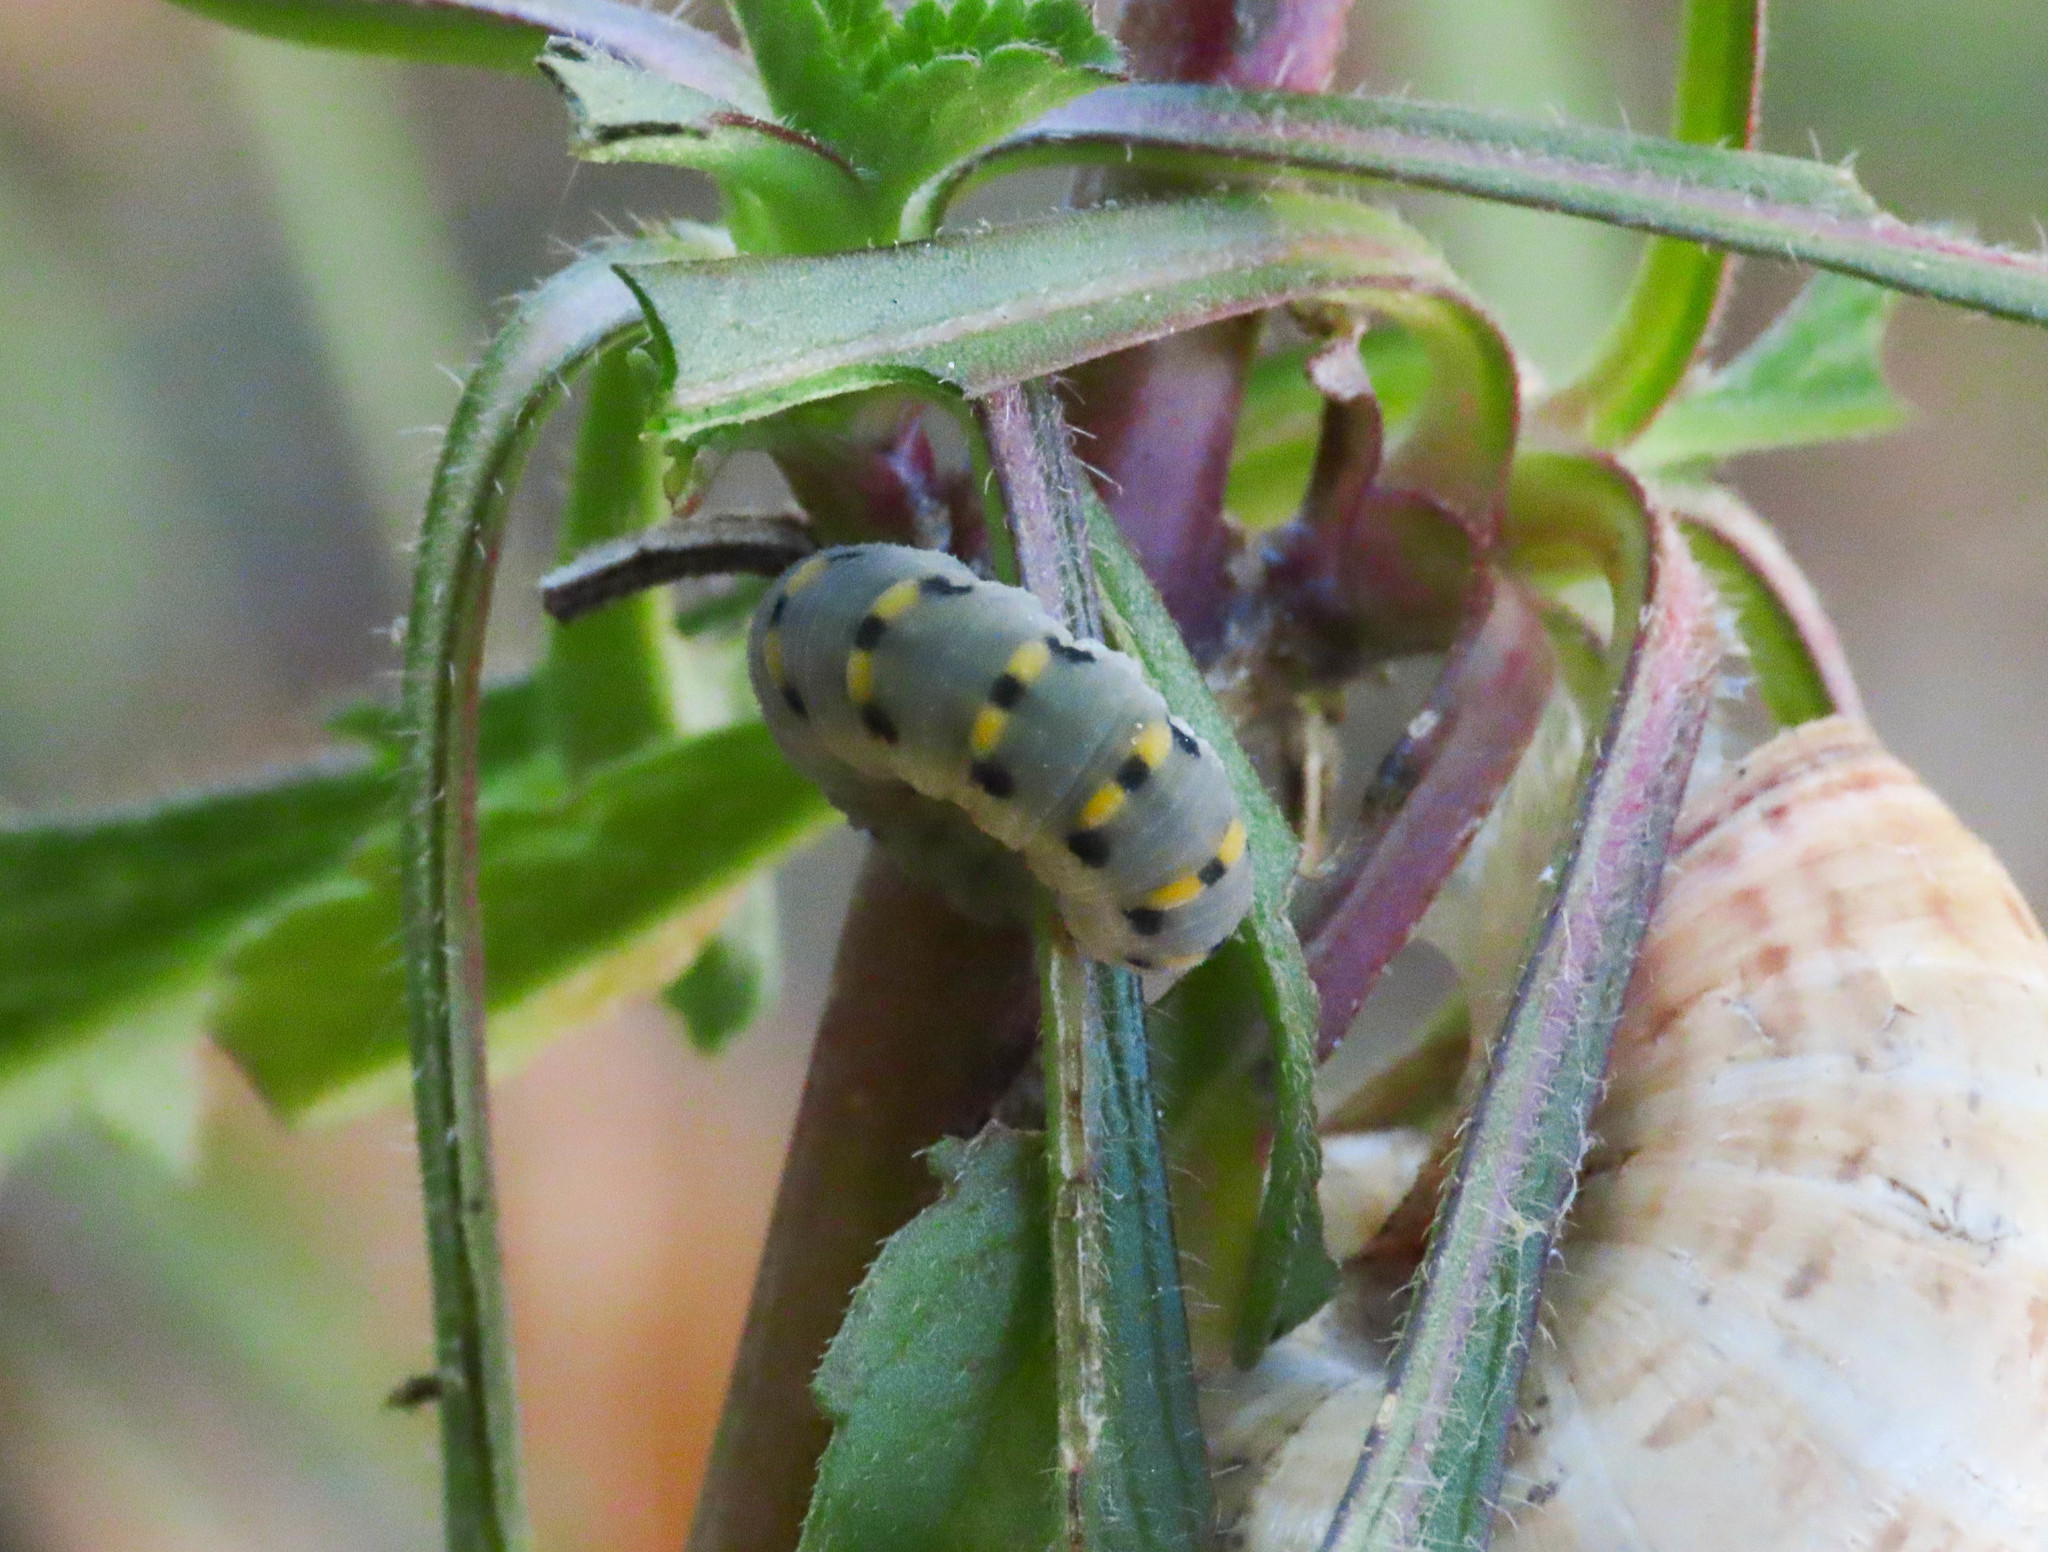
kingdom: Animalia
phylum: Arthropoda
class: Insecta
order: Hymenoptera
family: Cimbicidae
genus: Abia
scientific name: Abia nitens
